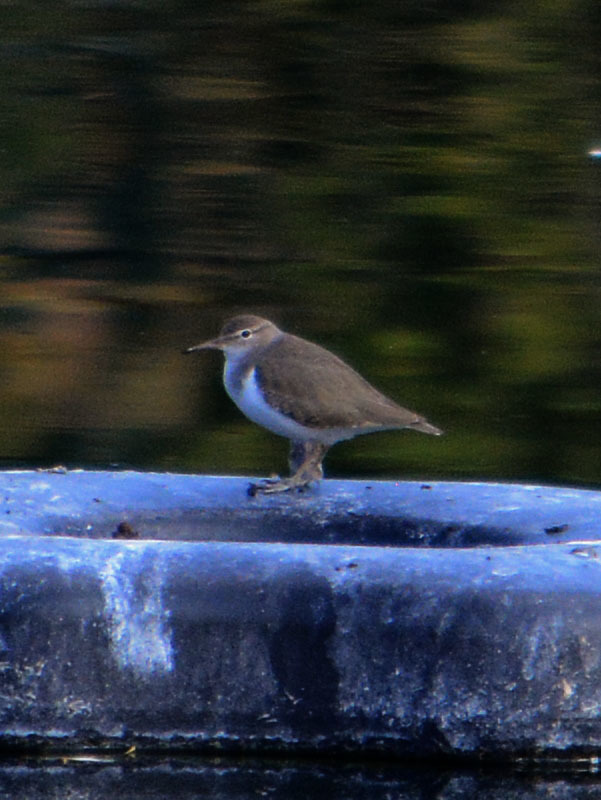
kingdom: Animalia
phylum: Chordata
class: Aves
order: Charadriiformes
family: Scolopacidae
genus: Actitis
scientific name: Actitis macularius
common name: Spotted sandpiper
